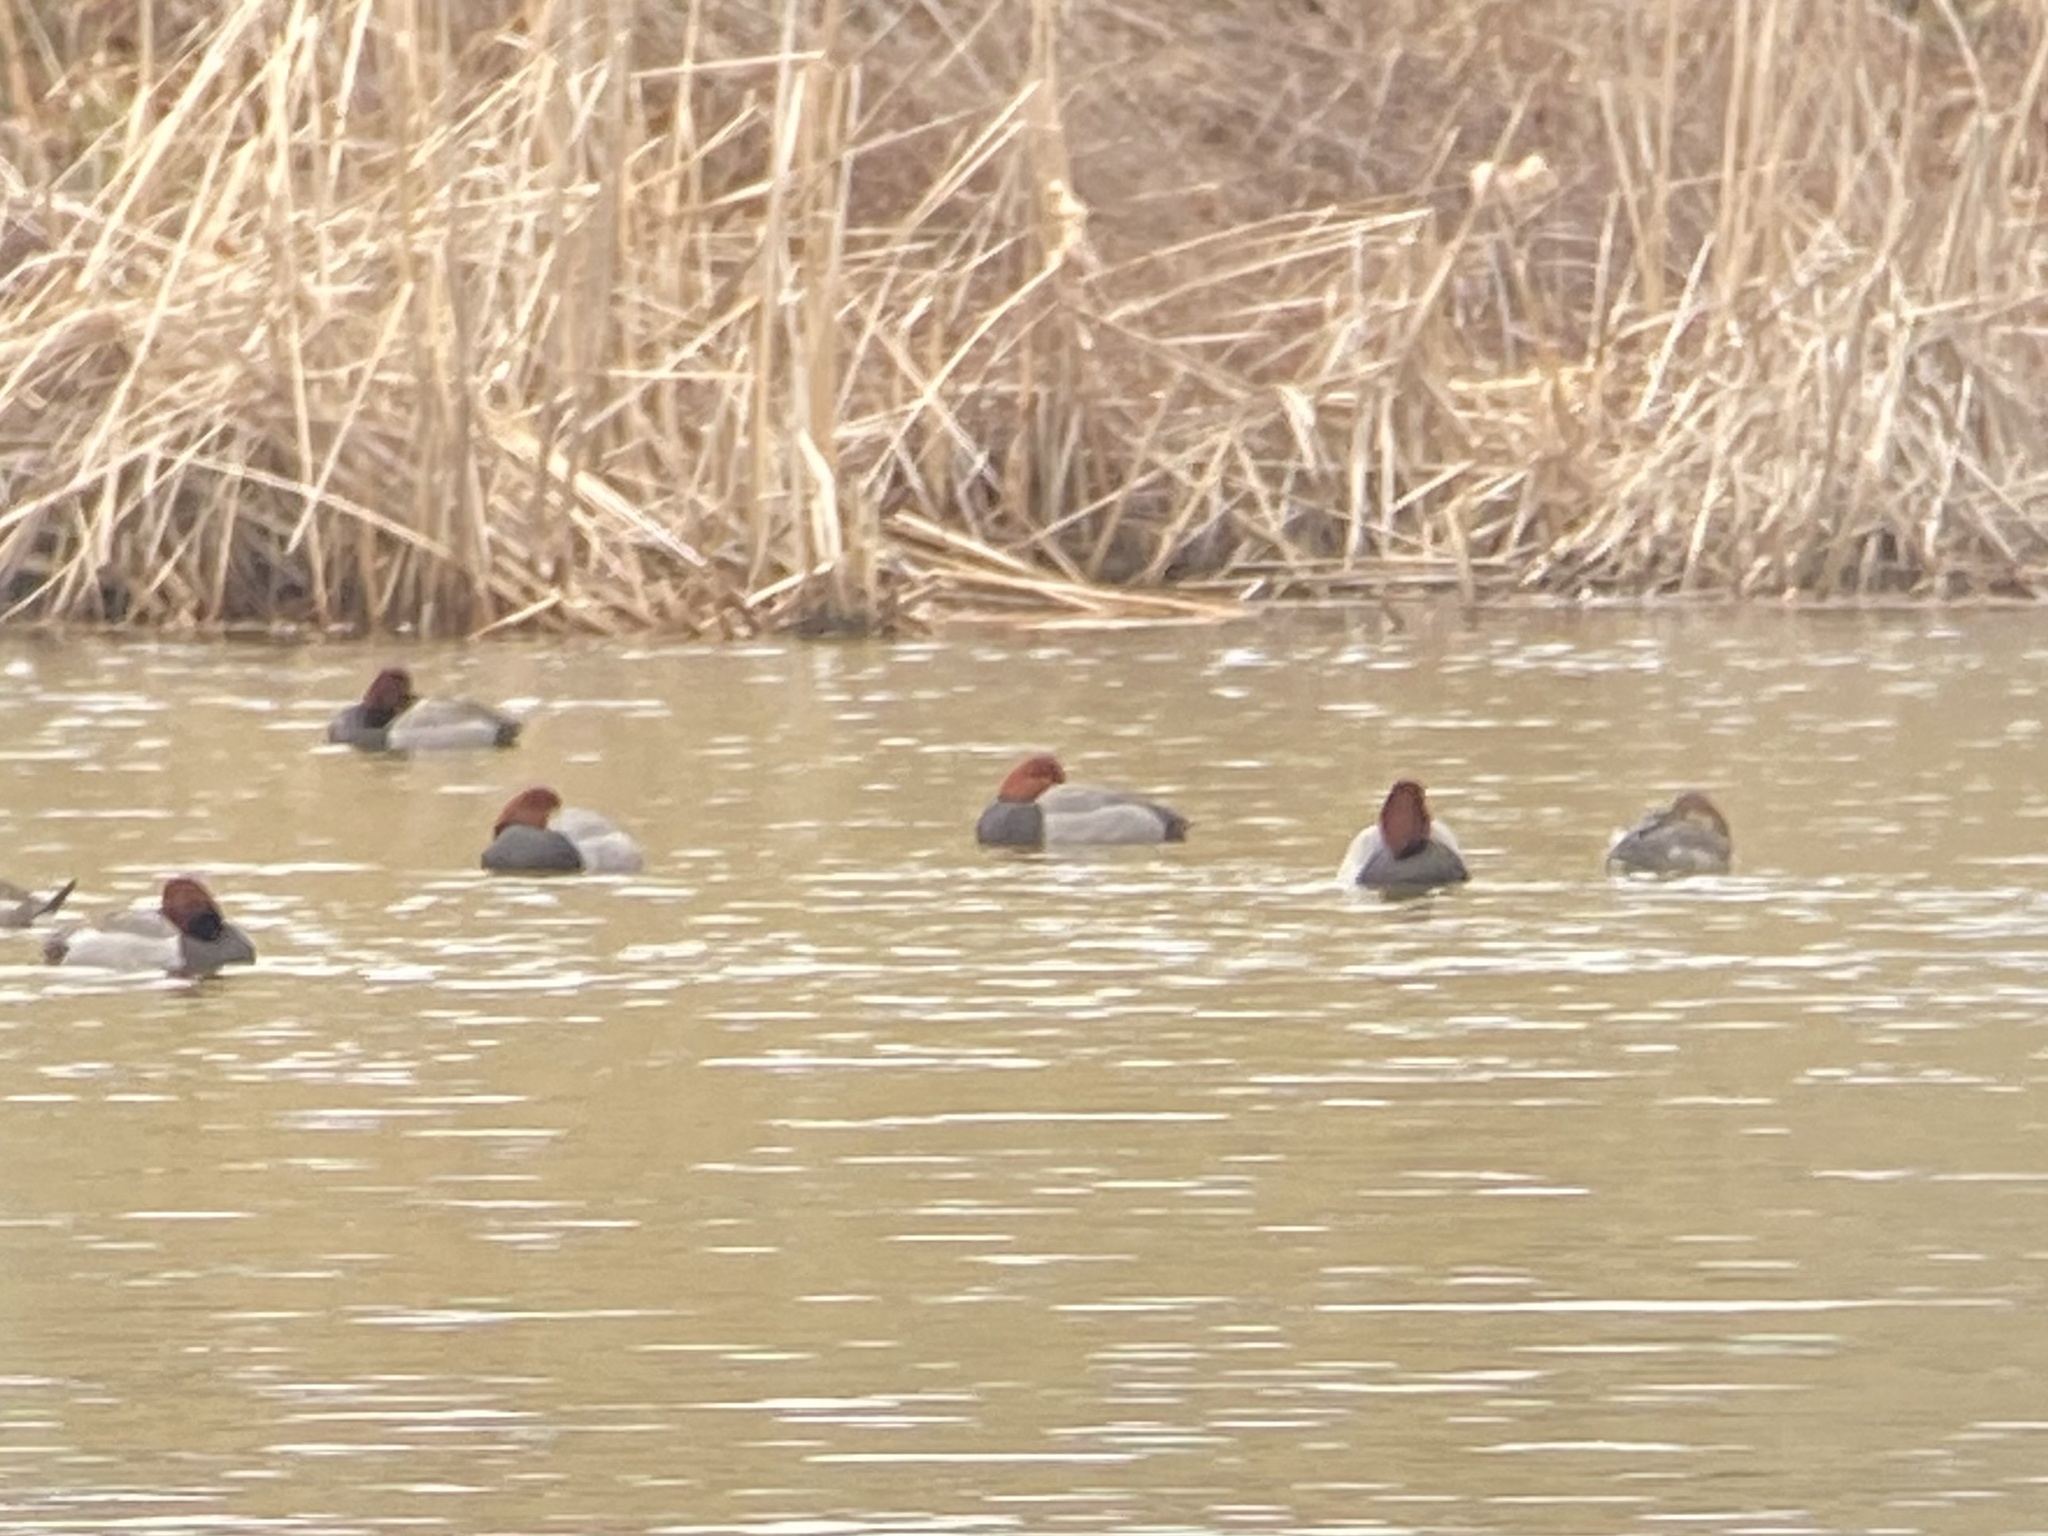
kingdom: Animalia
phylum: Chordata
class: Aves
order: Anseriformes
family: Anatidae
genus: Aythya
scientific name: Aythya americana
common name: Redhead
